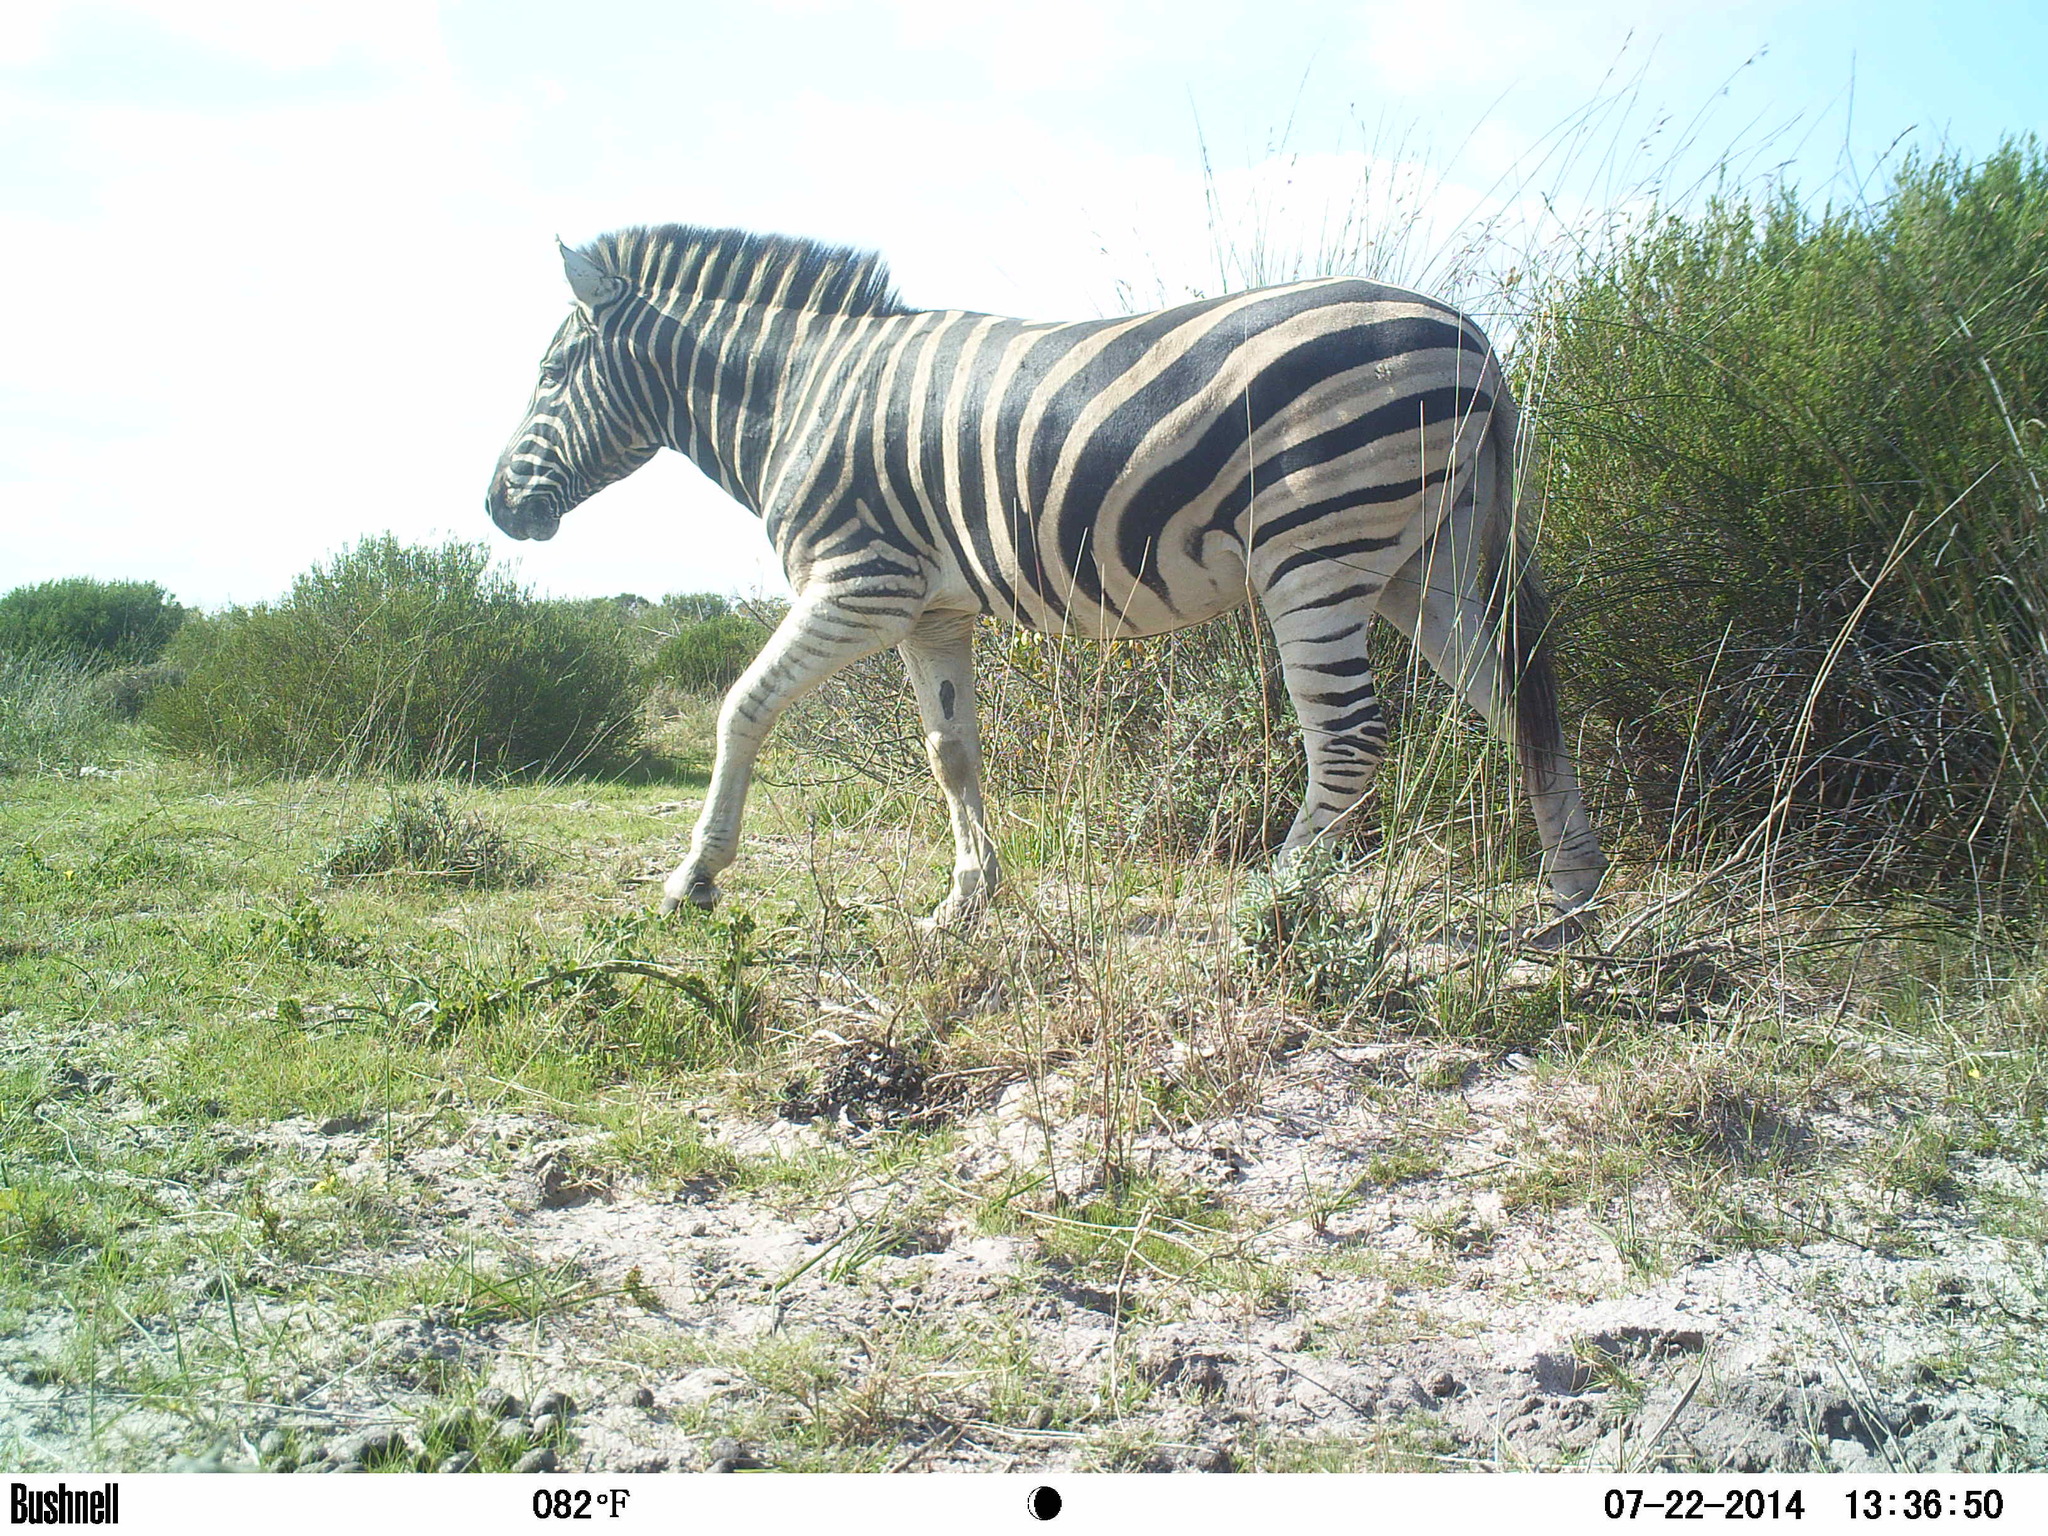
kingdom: Animalia
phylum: Chordata
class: Mammalia
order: Perissodactyla
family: Equidae
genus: Equus
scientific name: Equus quagga
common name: Plains zebra
